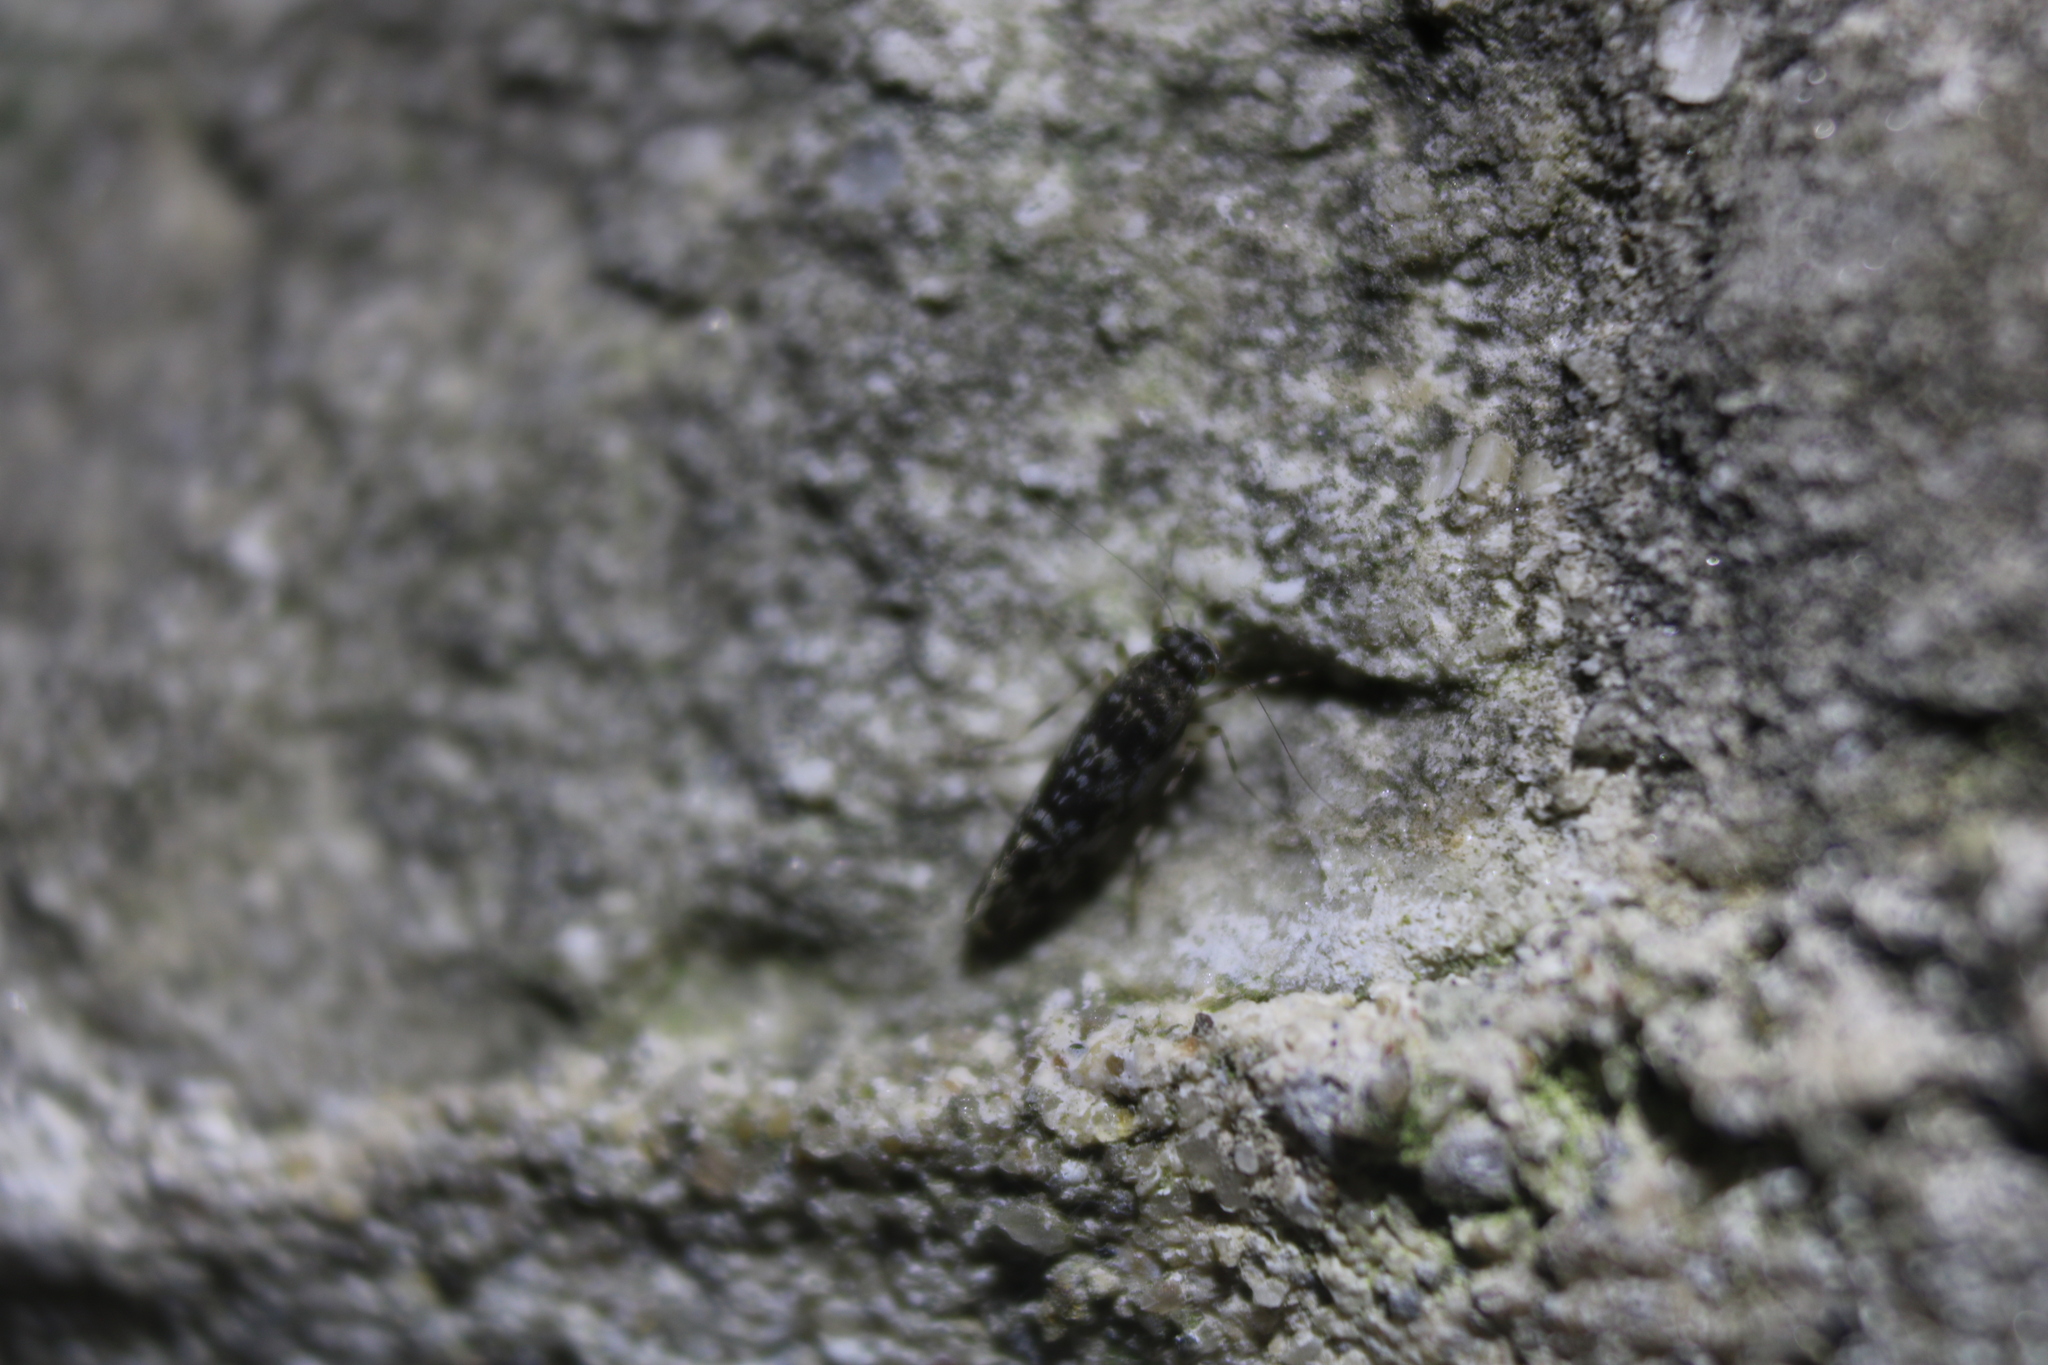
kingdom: Animalia
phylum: Arthropoda
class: Insecta
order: Psocodea
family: Amphientomidae
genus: Stimulopalpus
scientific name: Stimulopalpus japonicus
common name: Tropical bark louse
